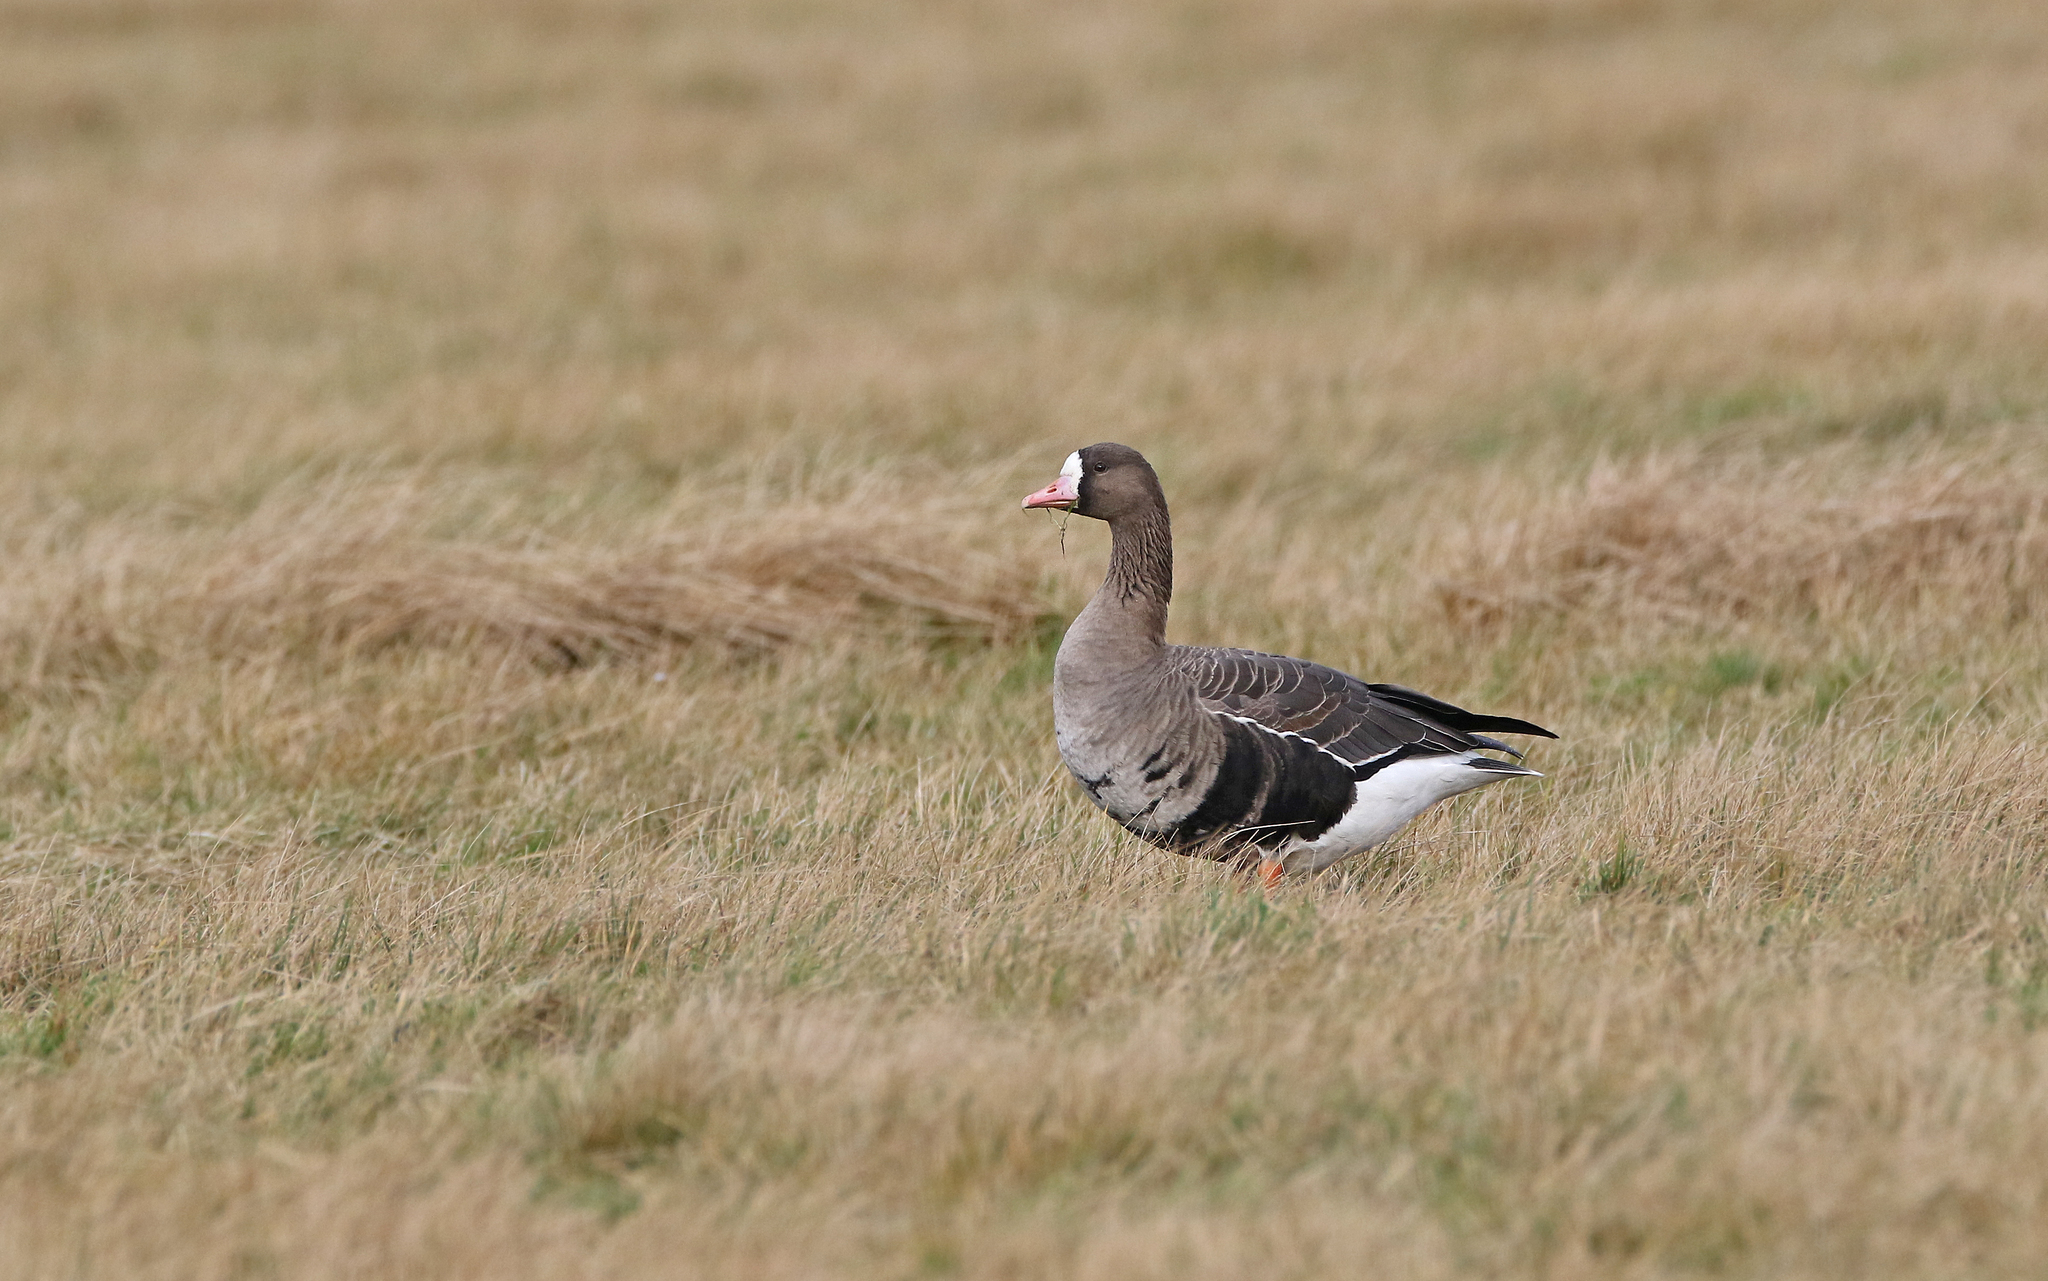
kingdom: Animalia
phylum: Chordata
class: Aves
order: Anseriformes
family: Anatidae
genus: Anser
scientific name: Anser albifrons
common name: Greater white-fronted goose
